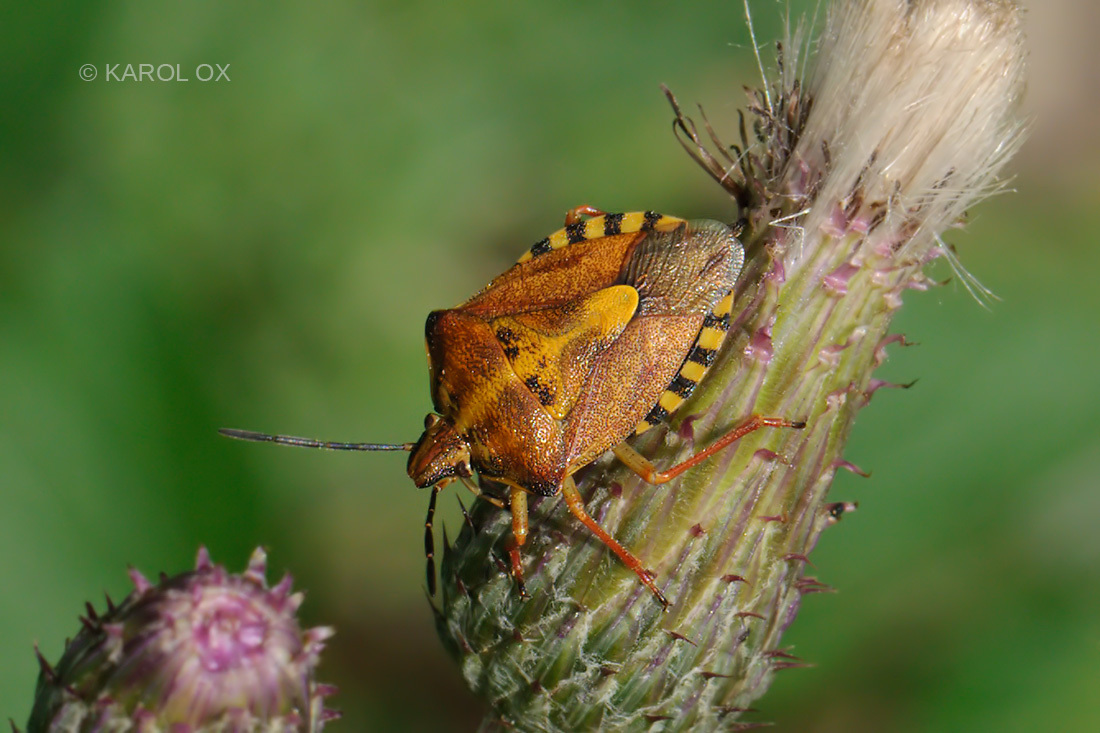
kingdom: Animalia
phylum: Arthropoda
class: Insecta
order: Hemiptera
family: Pentatomidae
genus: Carpocoris
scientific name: Carpocoris purpureipennis
